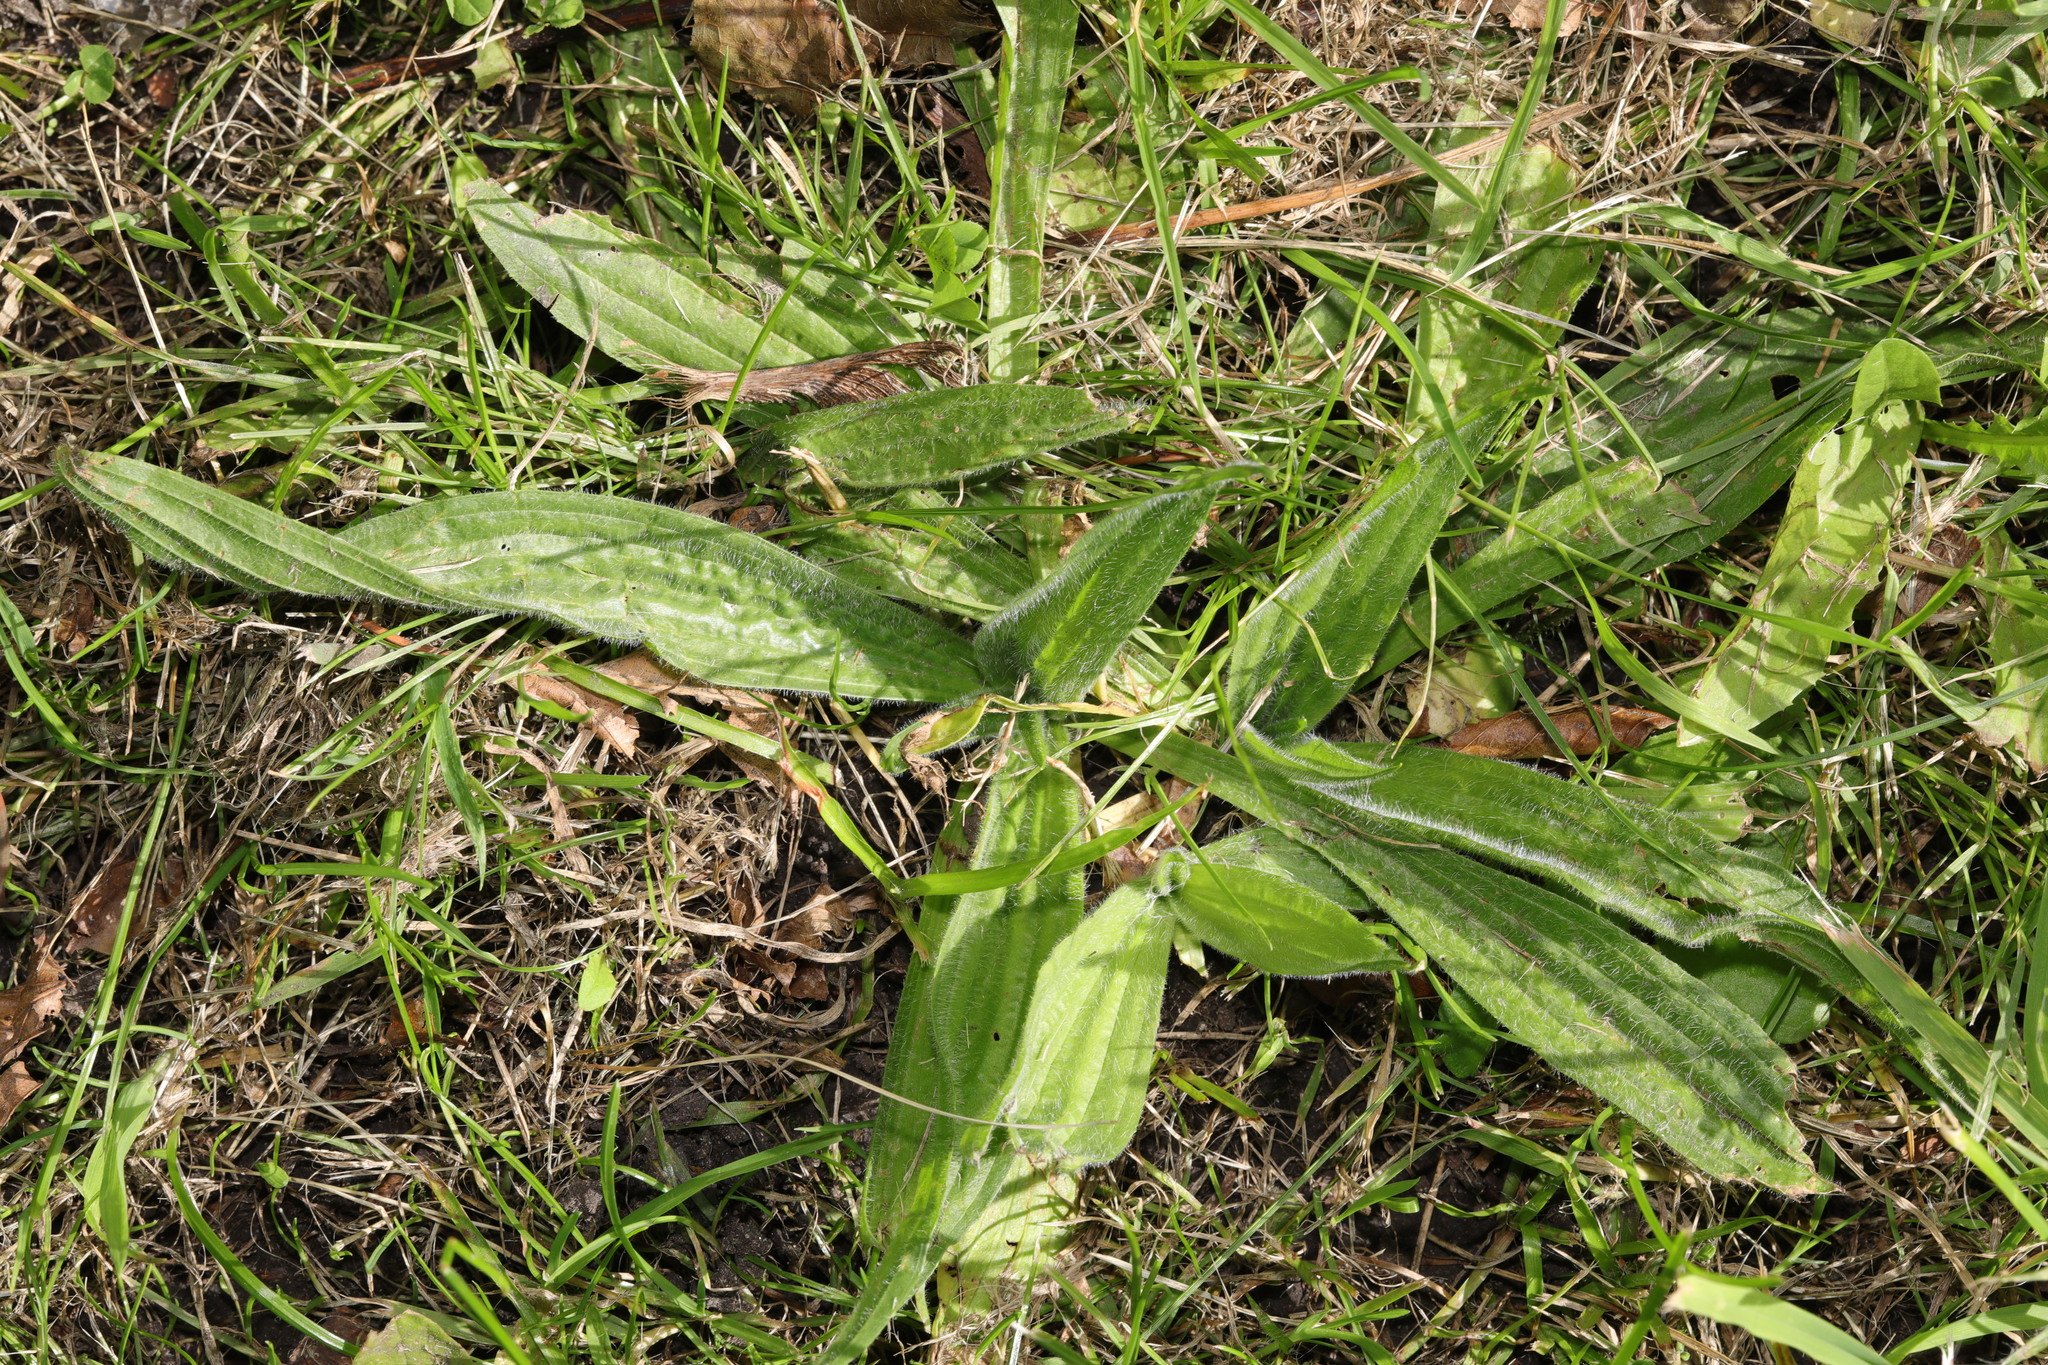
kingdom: Plantae
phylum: Tracheophyta
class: Magnoliopsida
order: Lamiales
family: Plantaginaceae
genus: Plantago
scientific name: Plantago lanceolata
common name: Ribwort plantain
